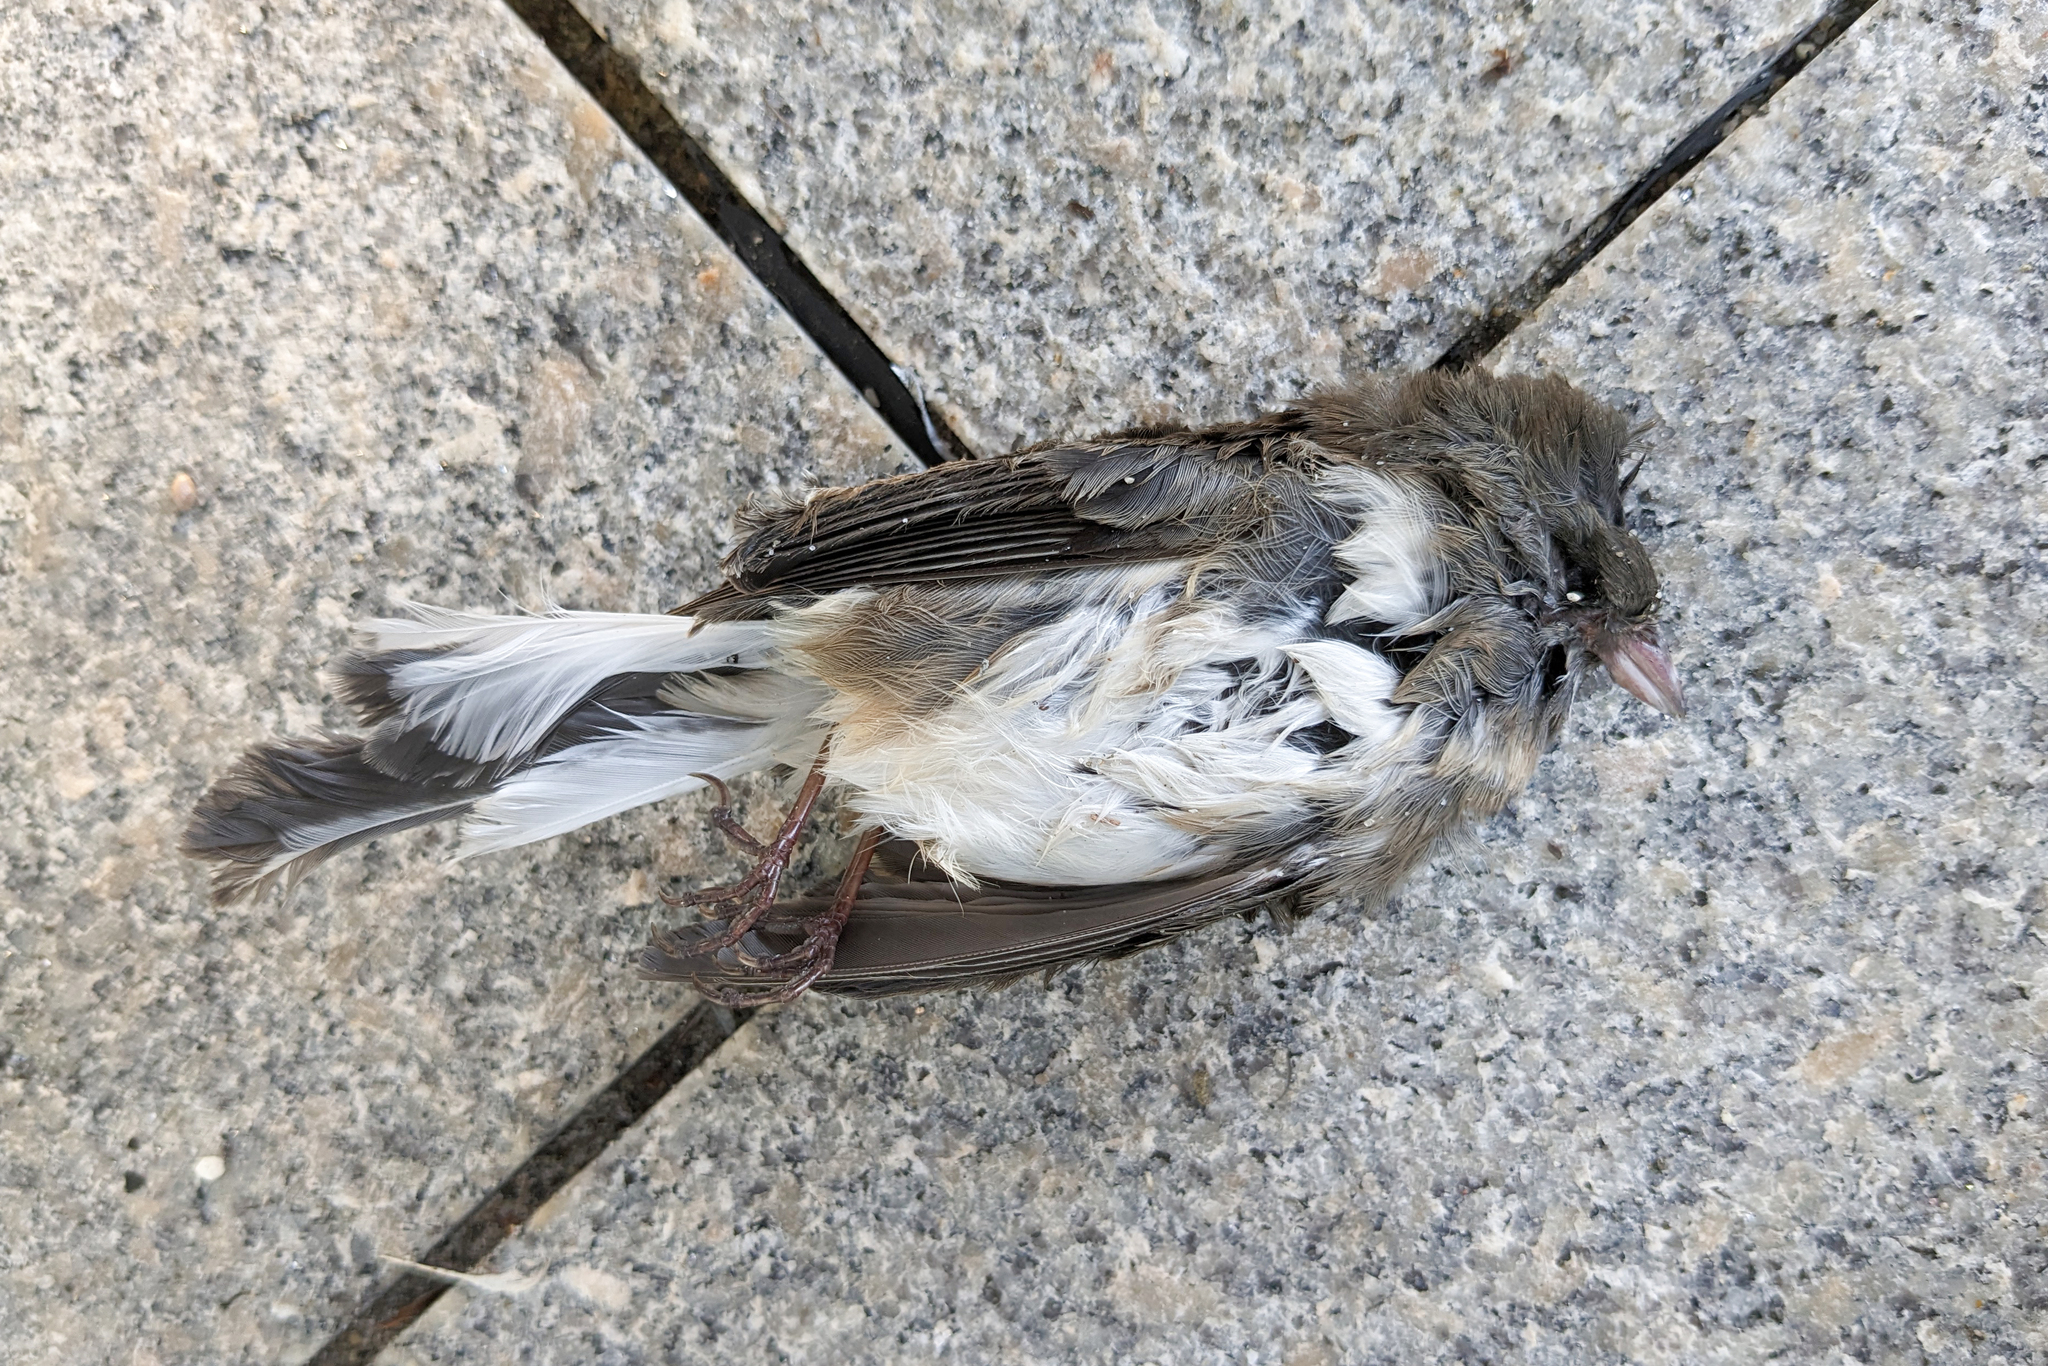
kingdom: Animalia
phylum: Chordata
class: Aves
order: Passeriformes
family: Passerellidae
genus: Junco
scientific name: Junco hyemalis
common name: Dark-eyed junco
